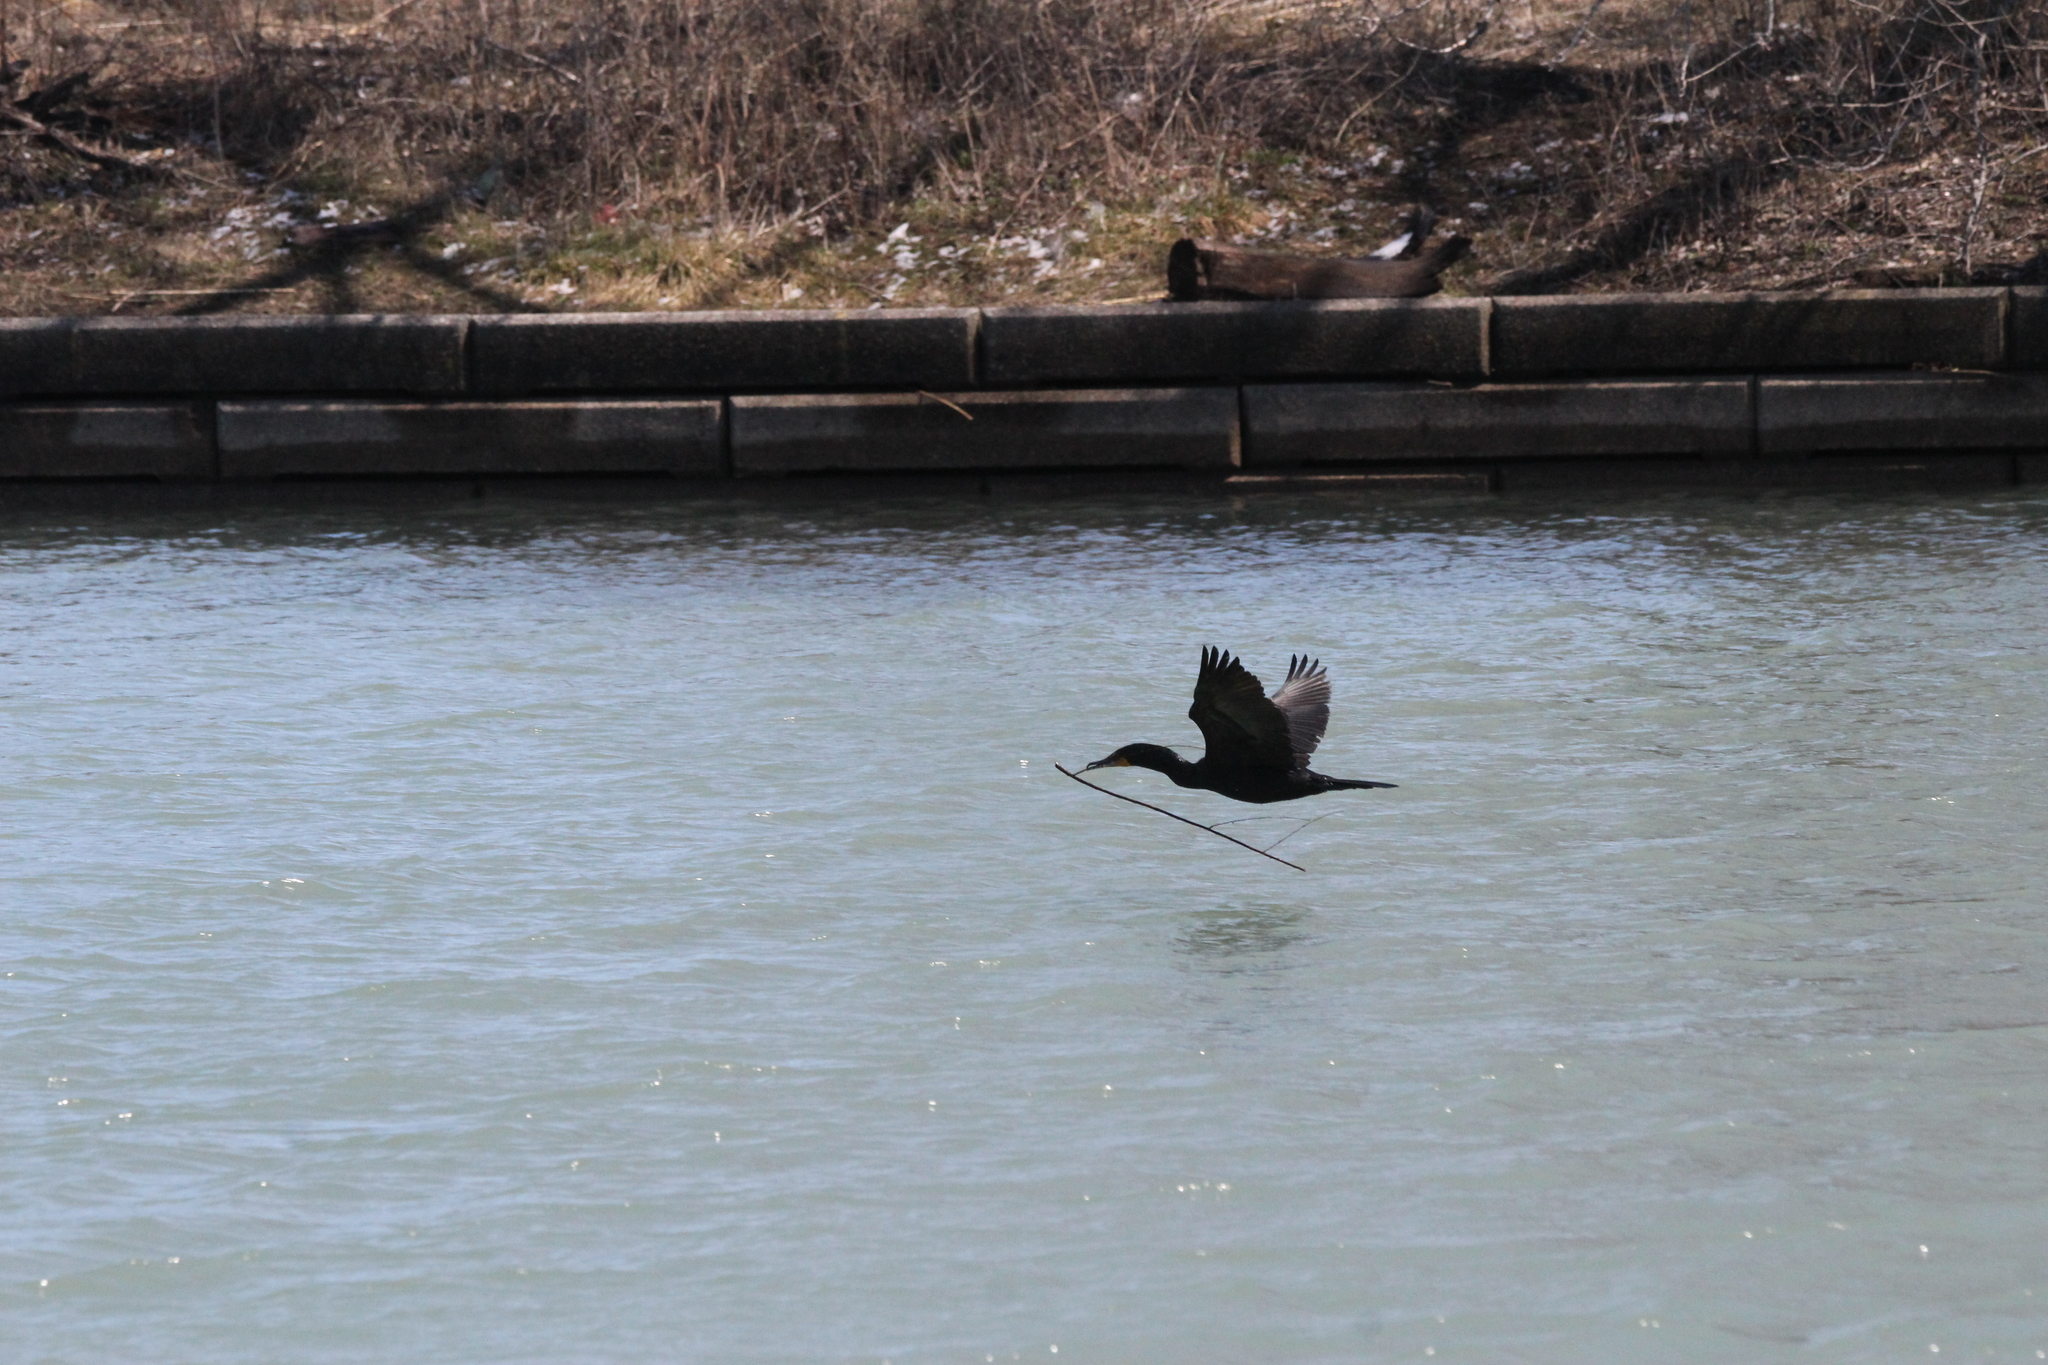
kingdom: Animalia
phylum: Chordata
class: Aves
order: Suliformes
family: Phalacrocoracidae
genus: Phalacrocorax
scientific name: Phalacrocorax auritus
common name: Double-crested cormorant
